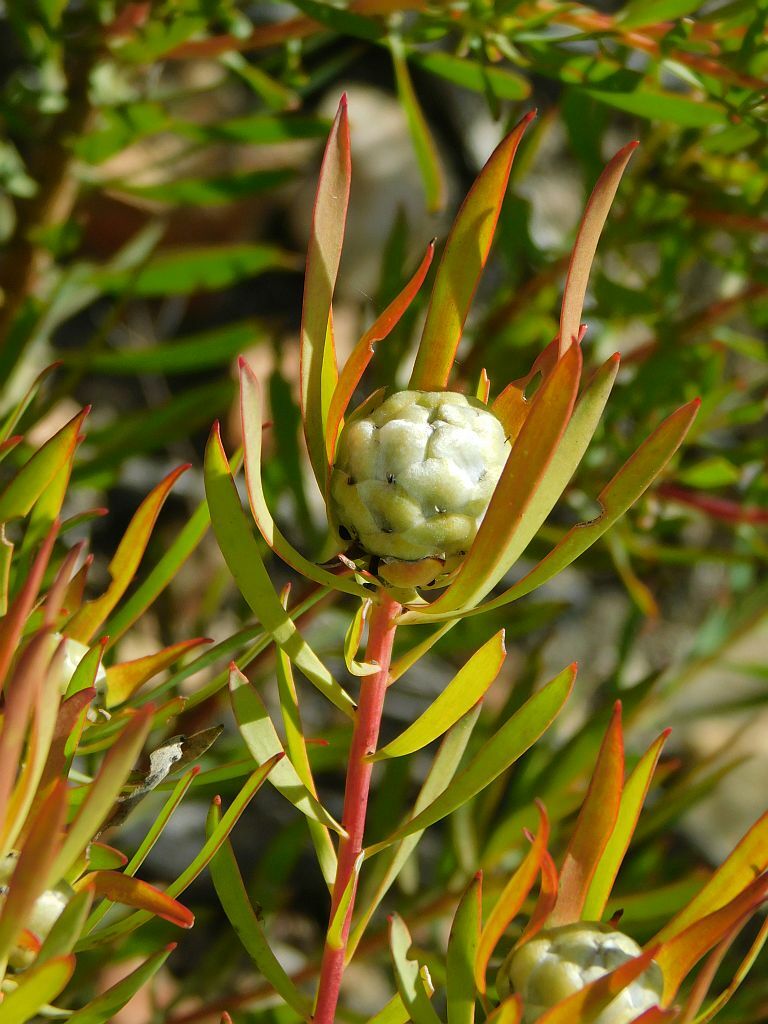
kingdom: Plantae
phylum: Tracheophyta
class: Magnoliopsida
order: Proteales
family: Proteaceae
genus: Leucadendron
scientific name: Leucadendron salignum
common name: Common sunshine conebush
